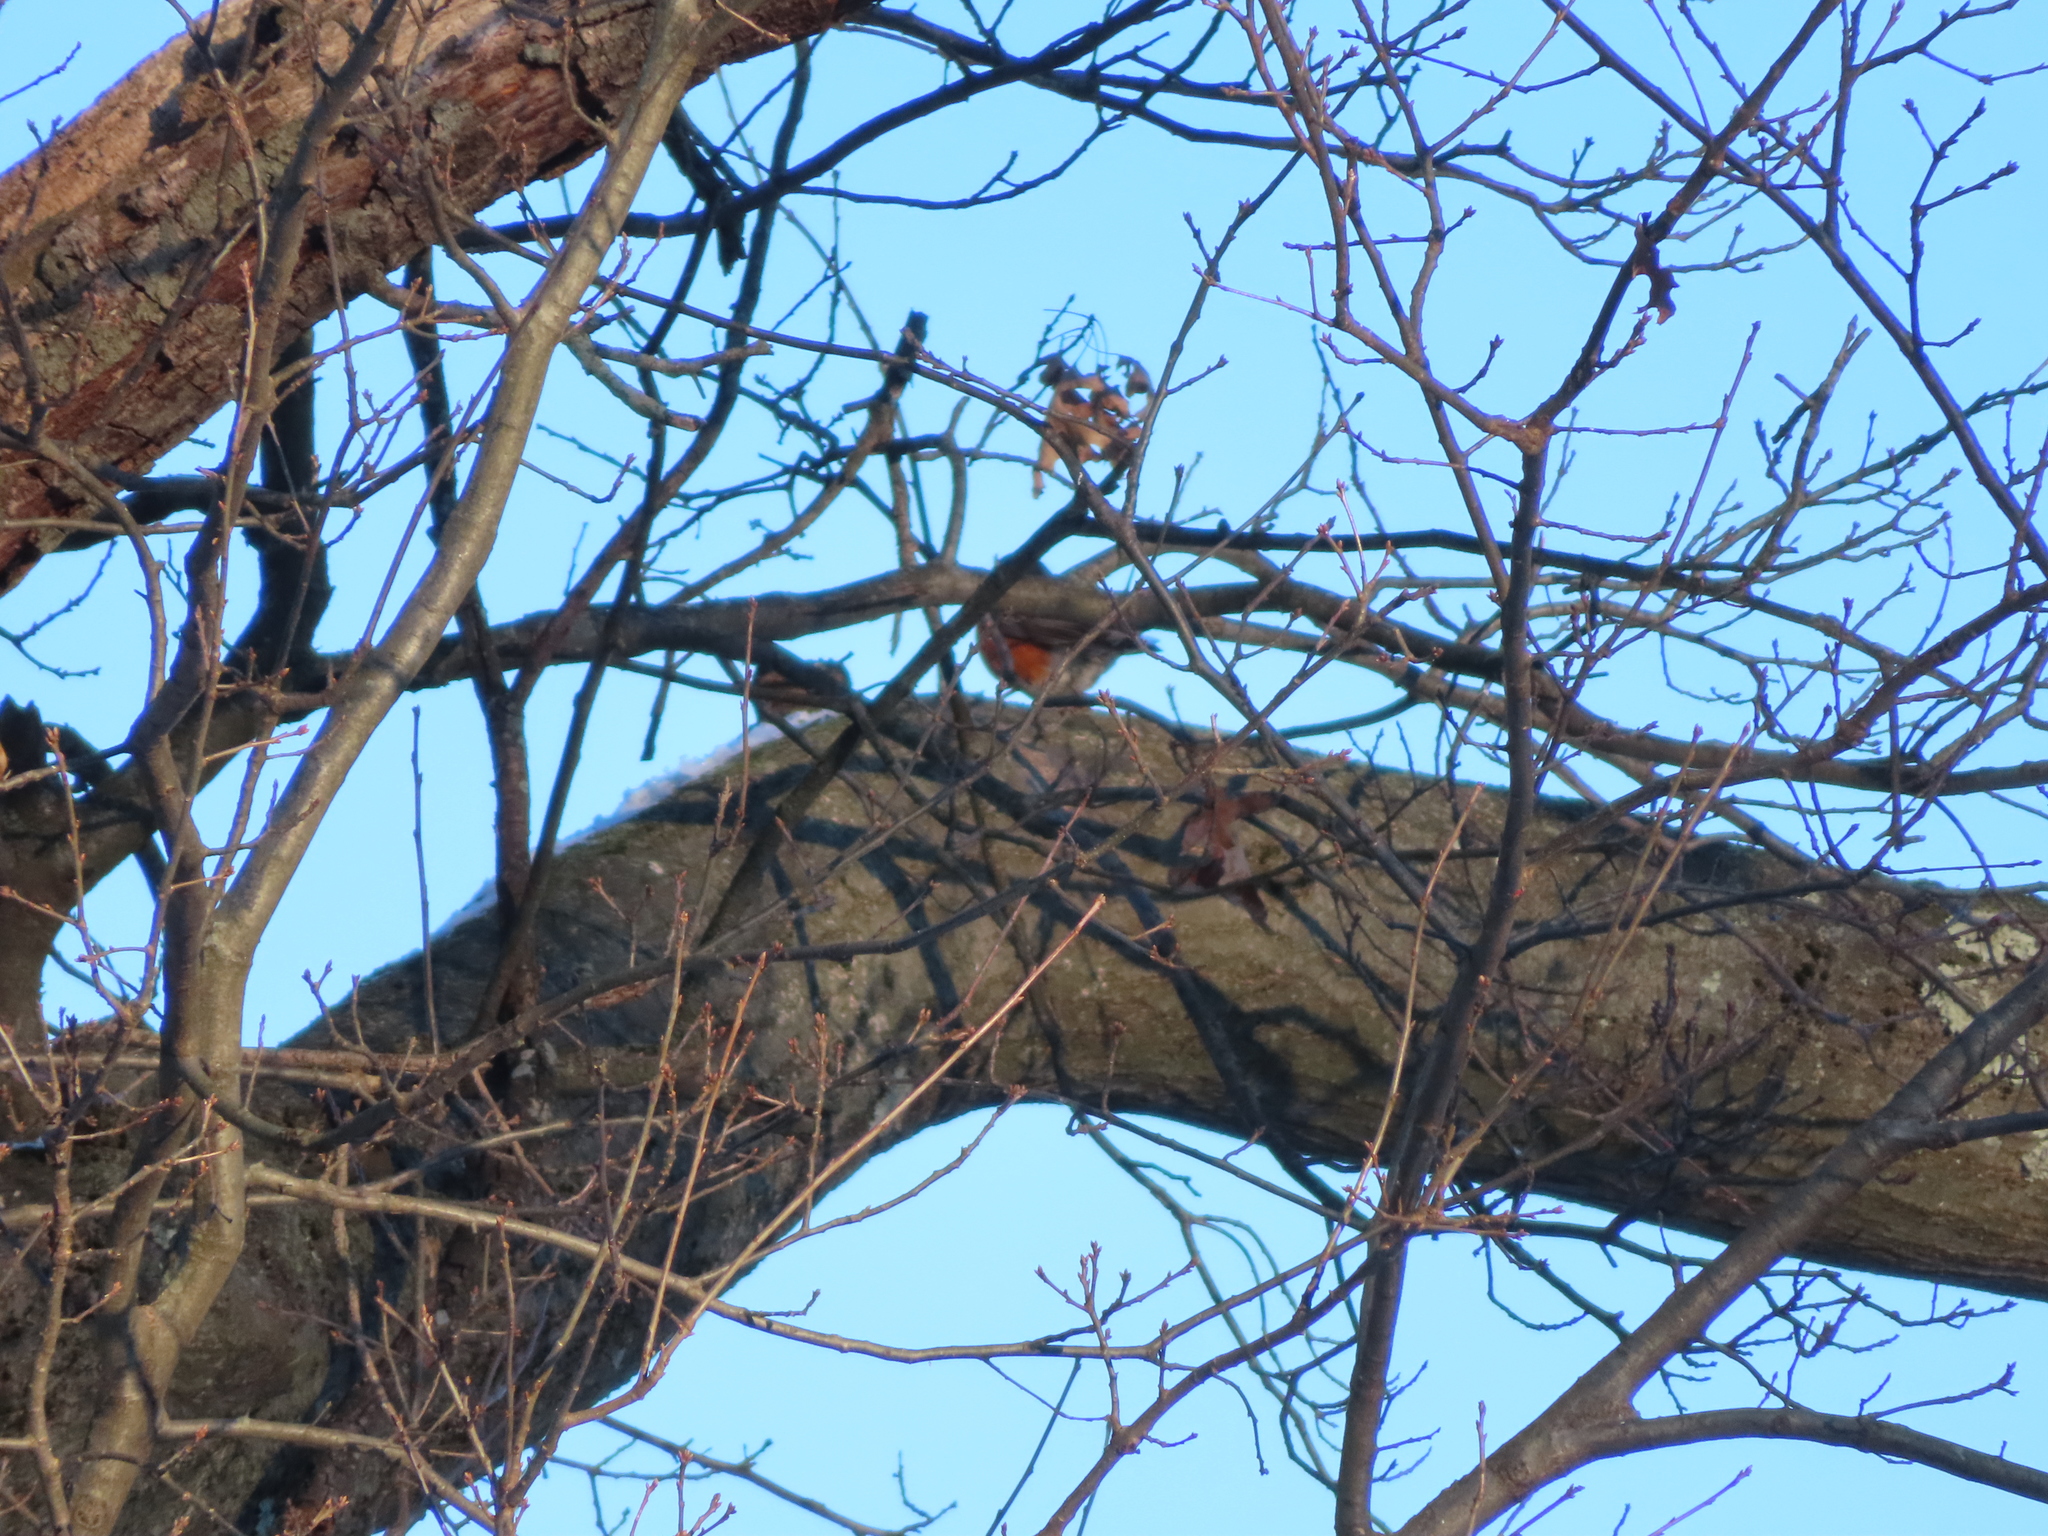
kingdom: Animalia
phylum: Chordata
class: Aves
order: Passeriformes
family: Turdidae
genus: Turdus
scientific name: Turdus migratorius
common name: American robin
